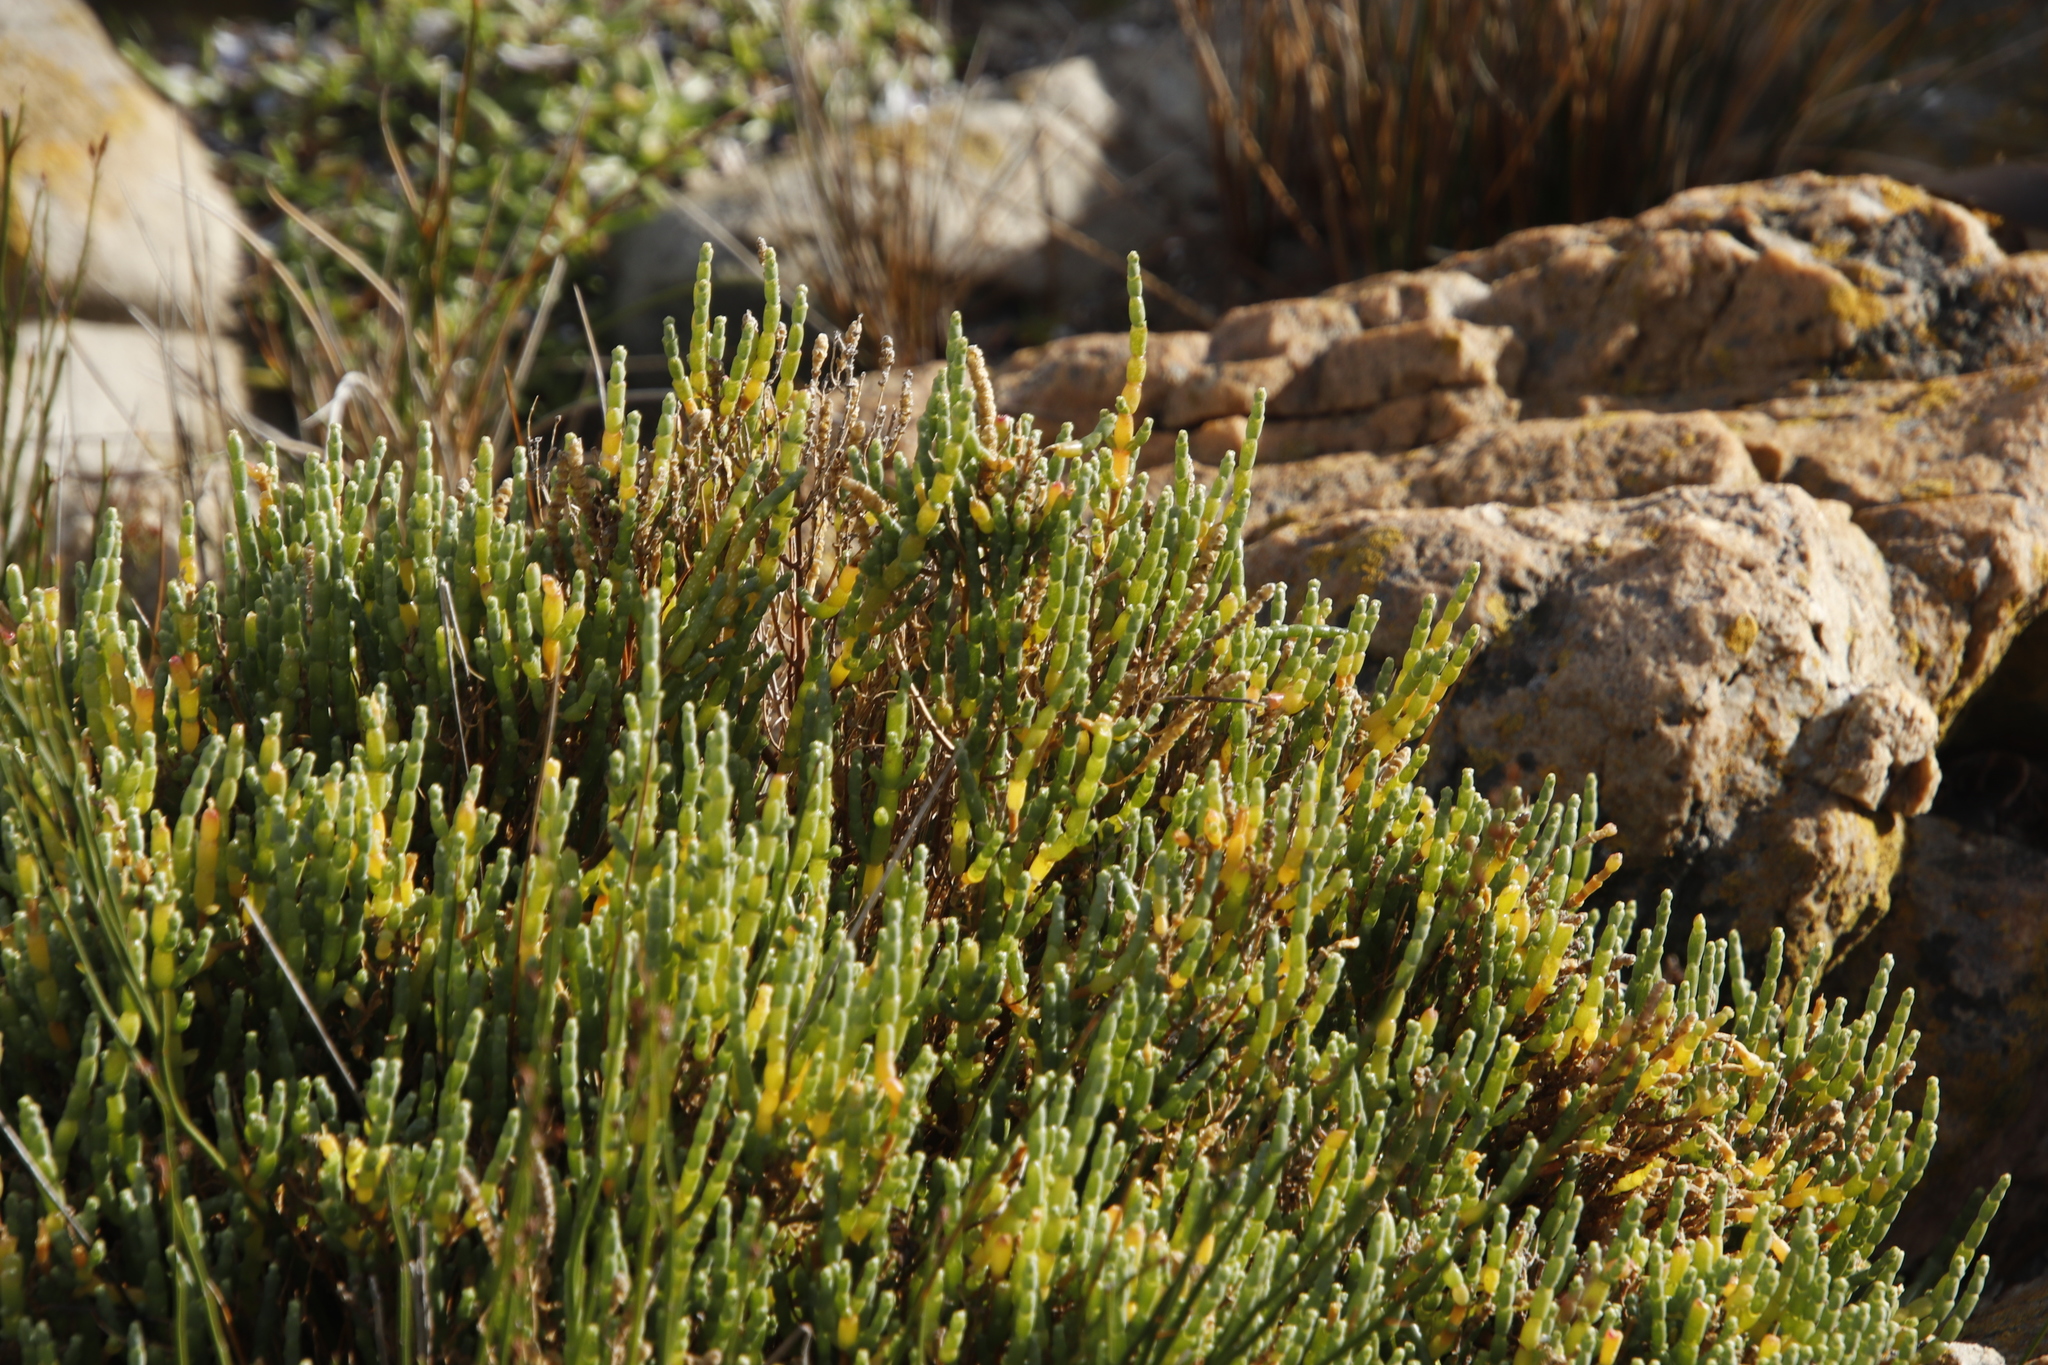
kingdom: Plantae
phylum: Tracheophyta
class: Magnoliopsida
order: Caryophyllales
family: Amaranthaceae
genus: Salicornia
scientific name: Salicornia littorea
